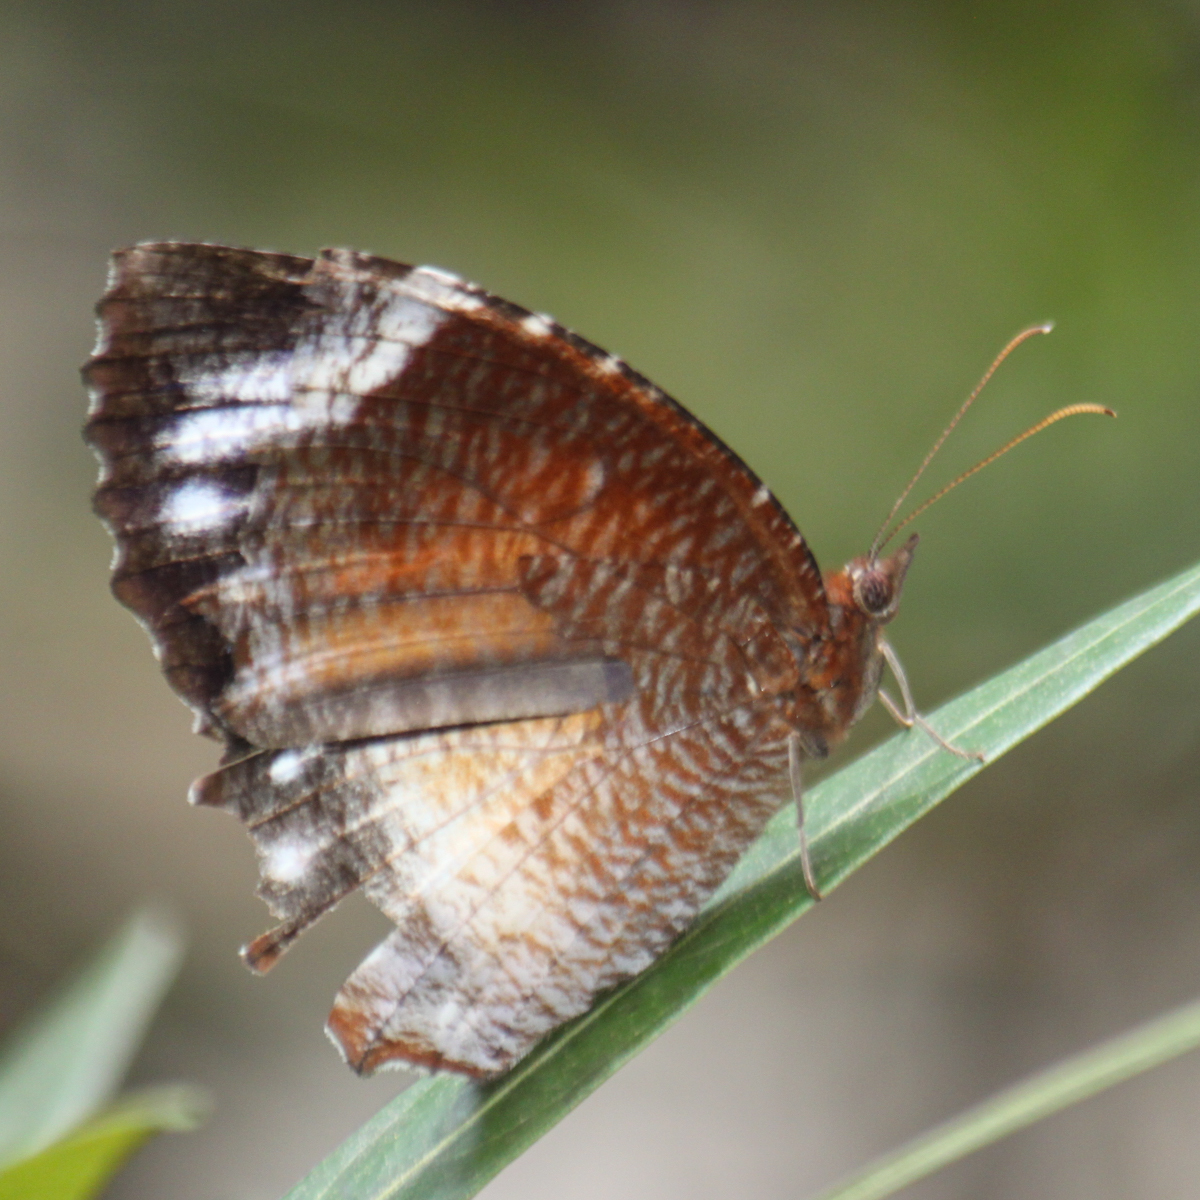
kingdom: Animalia
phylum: Arthropoda
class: Insecta
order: Lepidoptera
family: Nymphalidae
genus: Elymnias
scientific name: Elymnias hypermnestra
